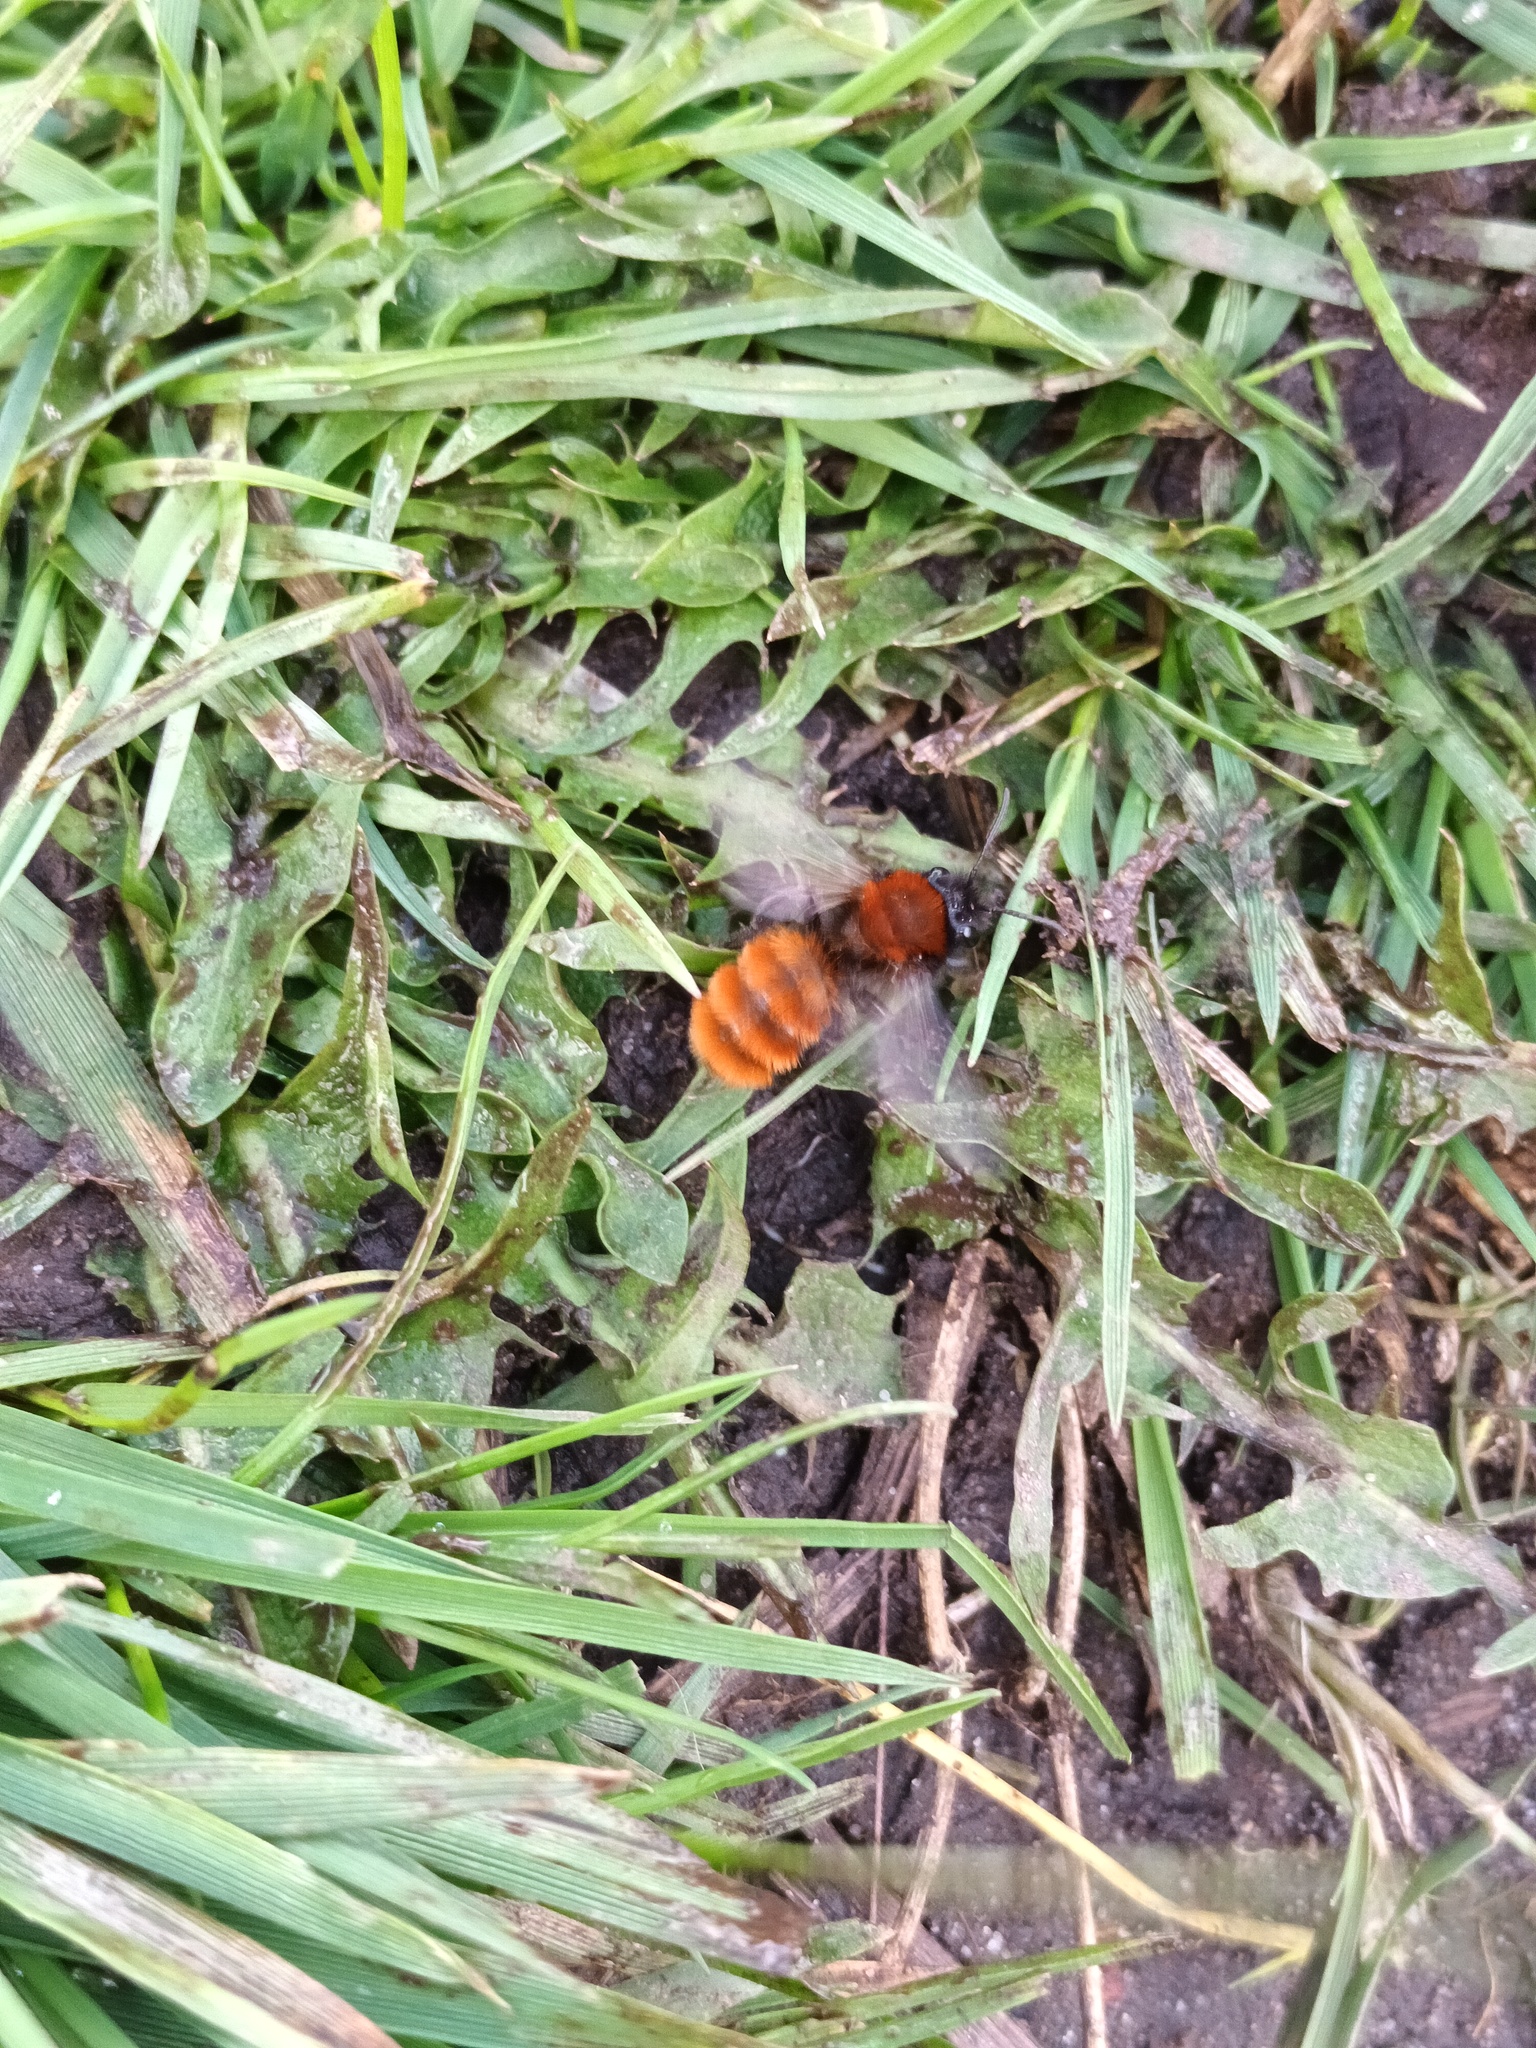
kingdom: Animalia
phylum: Arthropoda
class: Insecta
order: Hymenoptera
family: Andrenidae
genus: Andrena
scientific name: Andrena fulva
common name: Tawny mining bee
